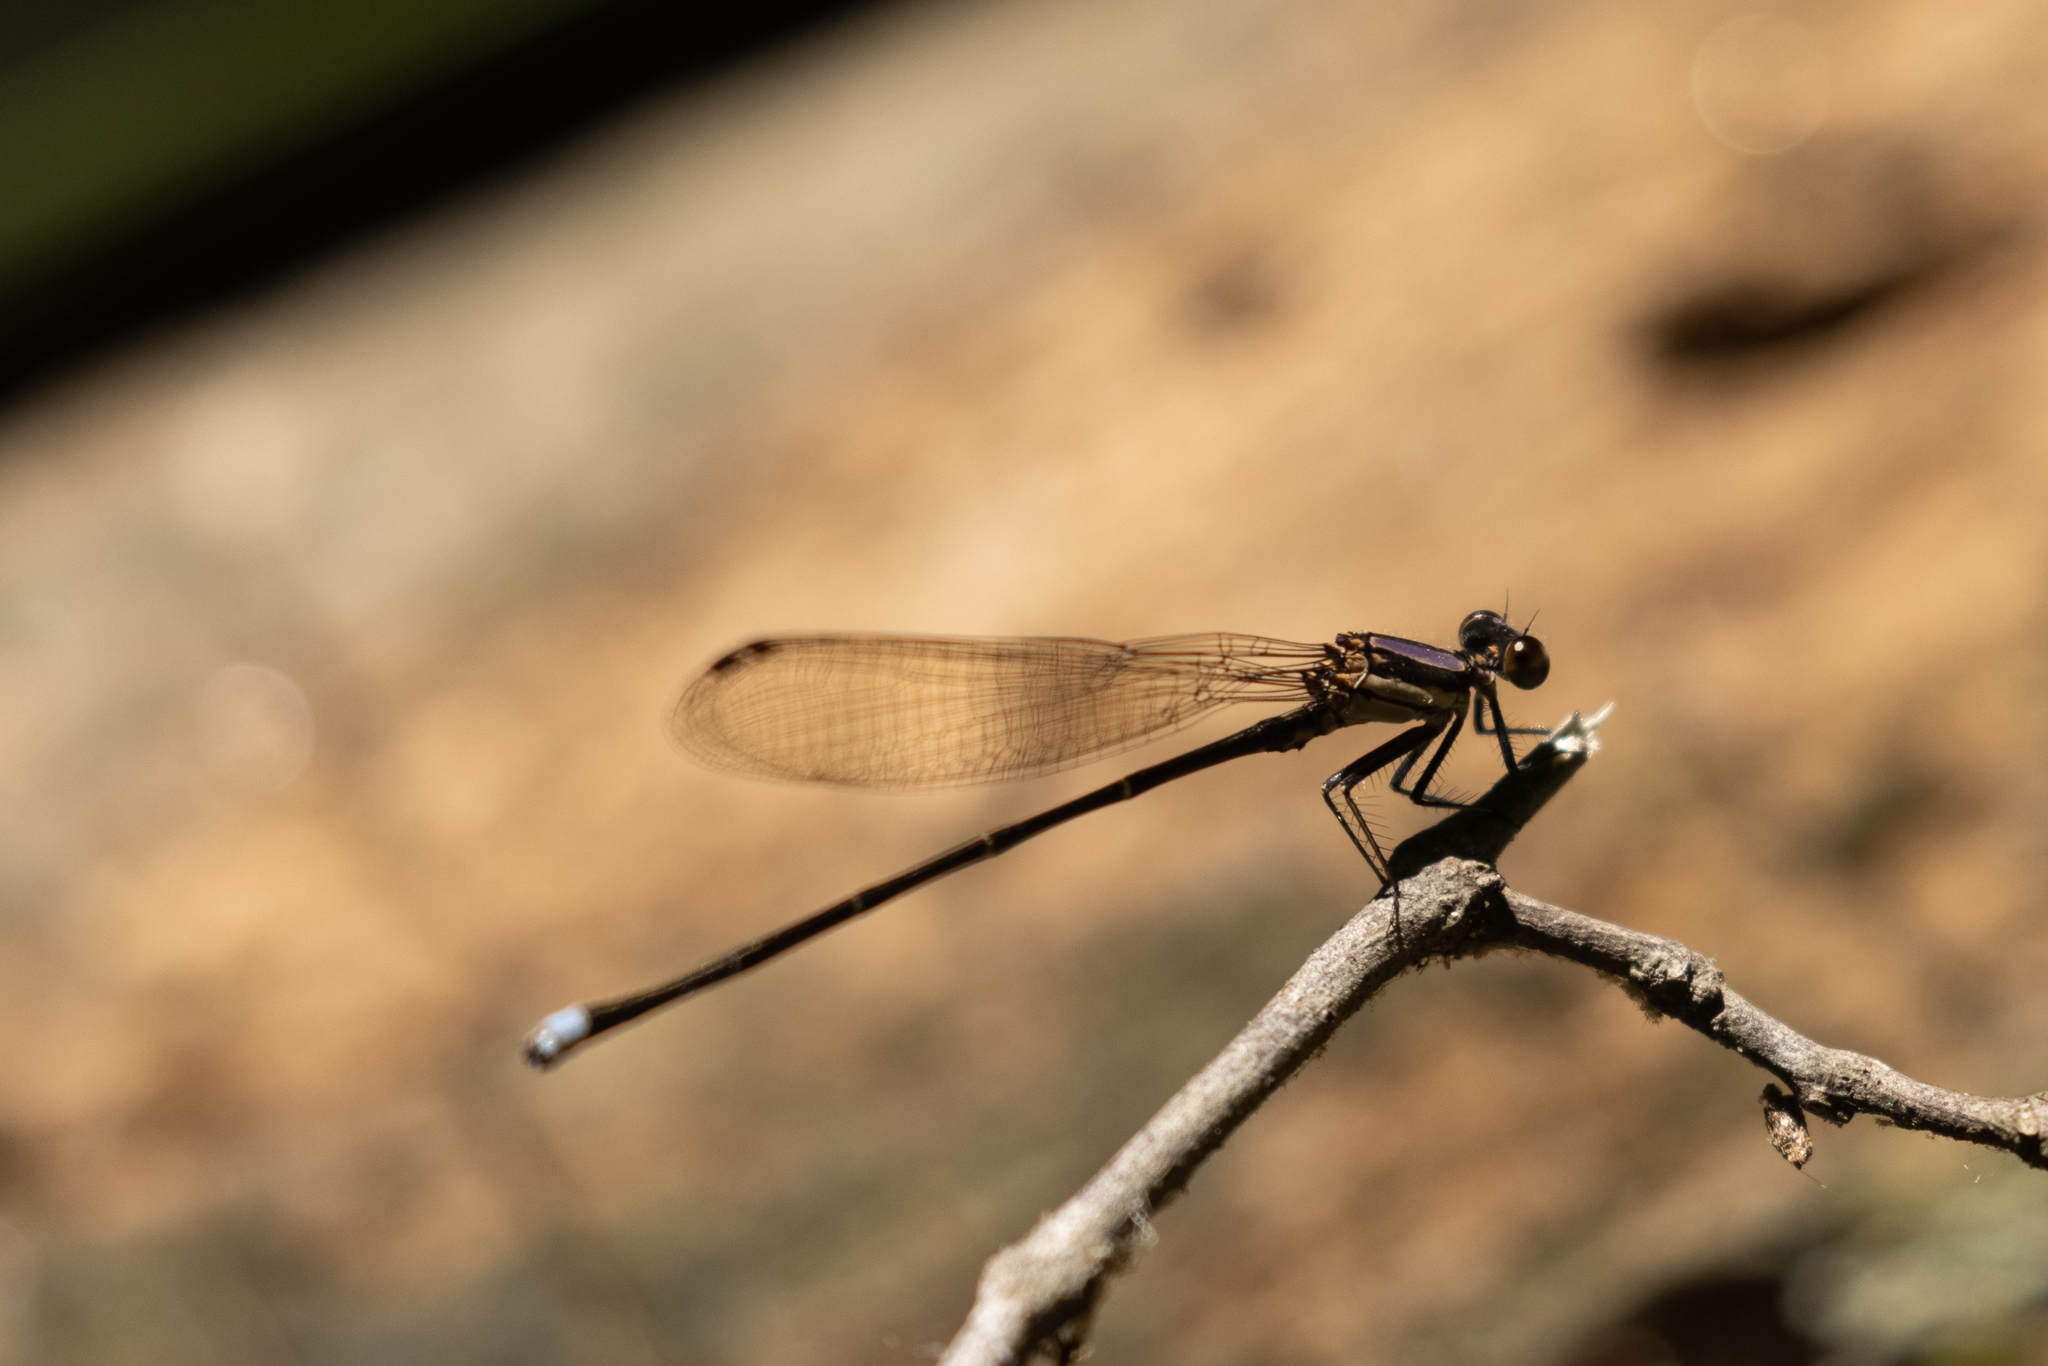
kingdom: Animalia
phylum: Arthropoda
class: Insecta
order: Odonata
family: Coenagrionidae
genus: Argia
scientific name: Argia tibialis
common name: Blue-tipped dancer
